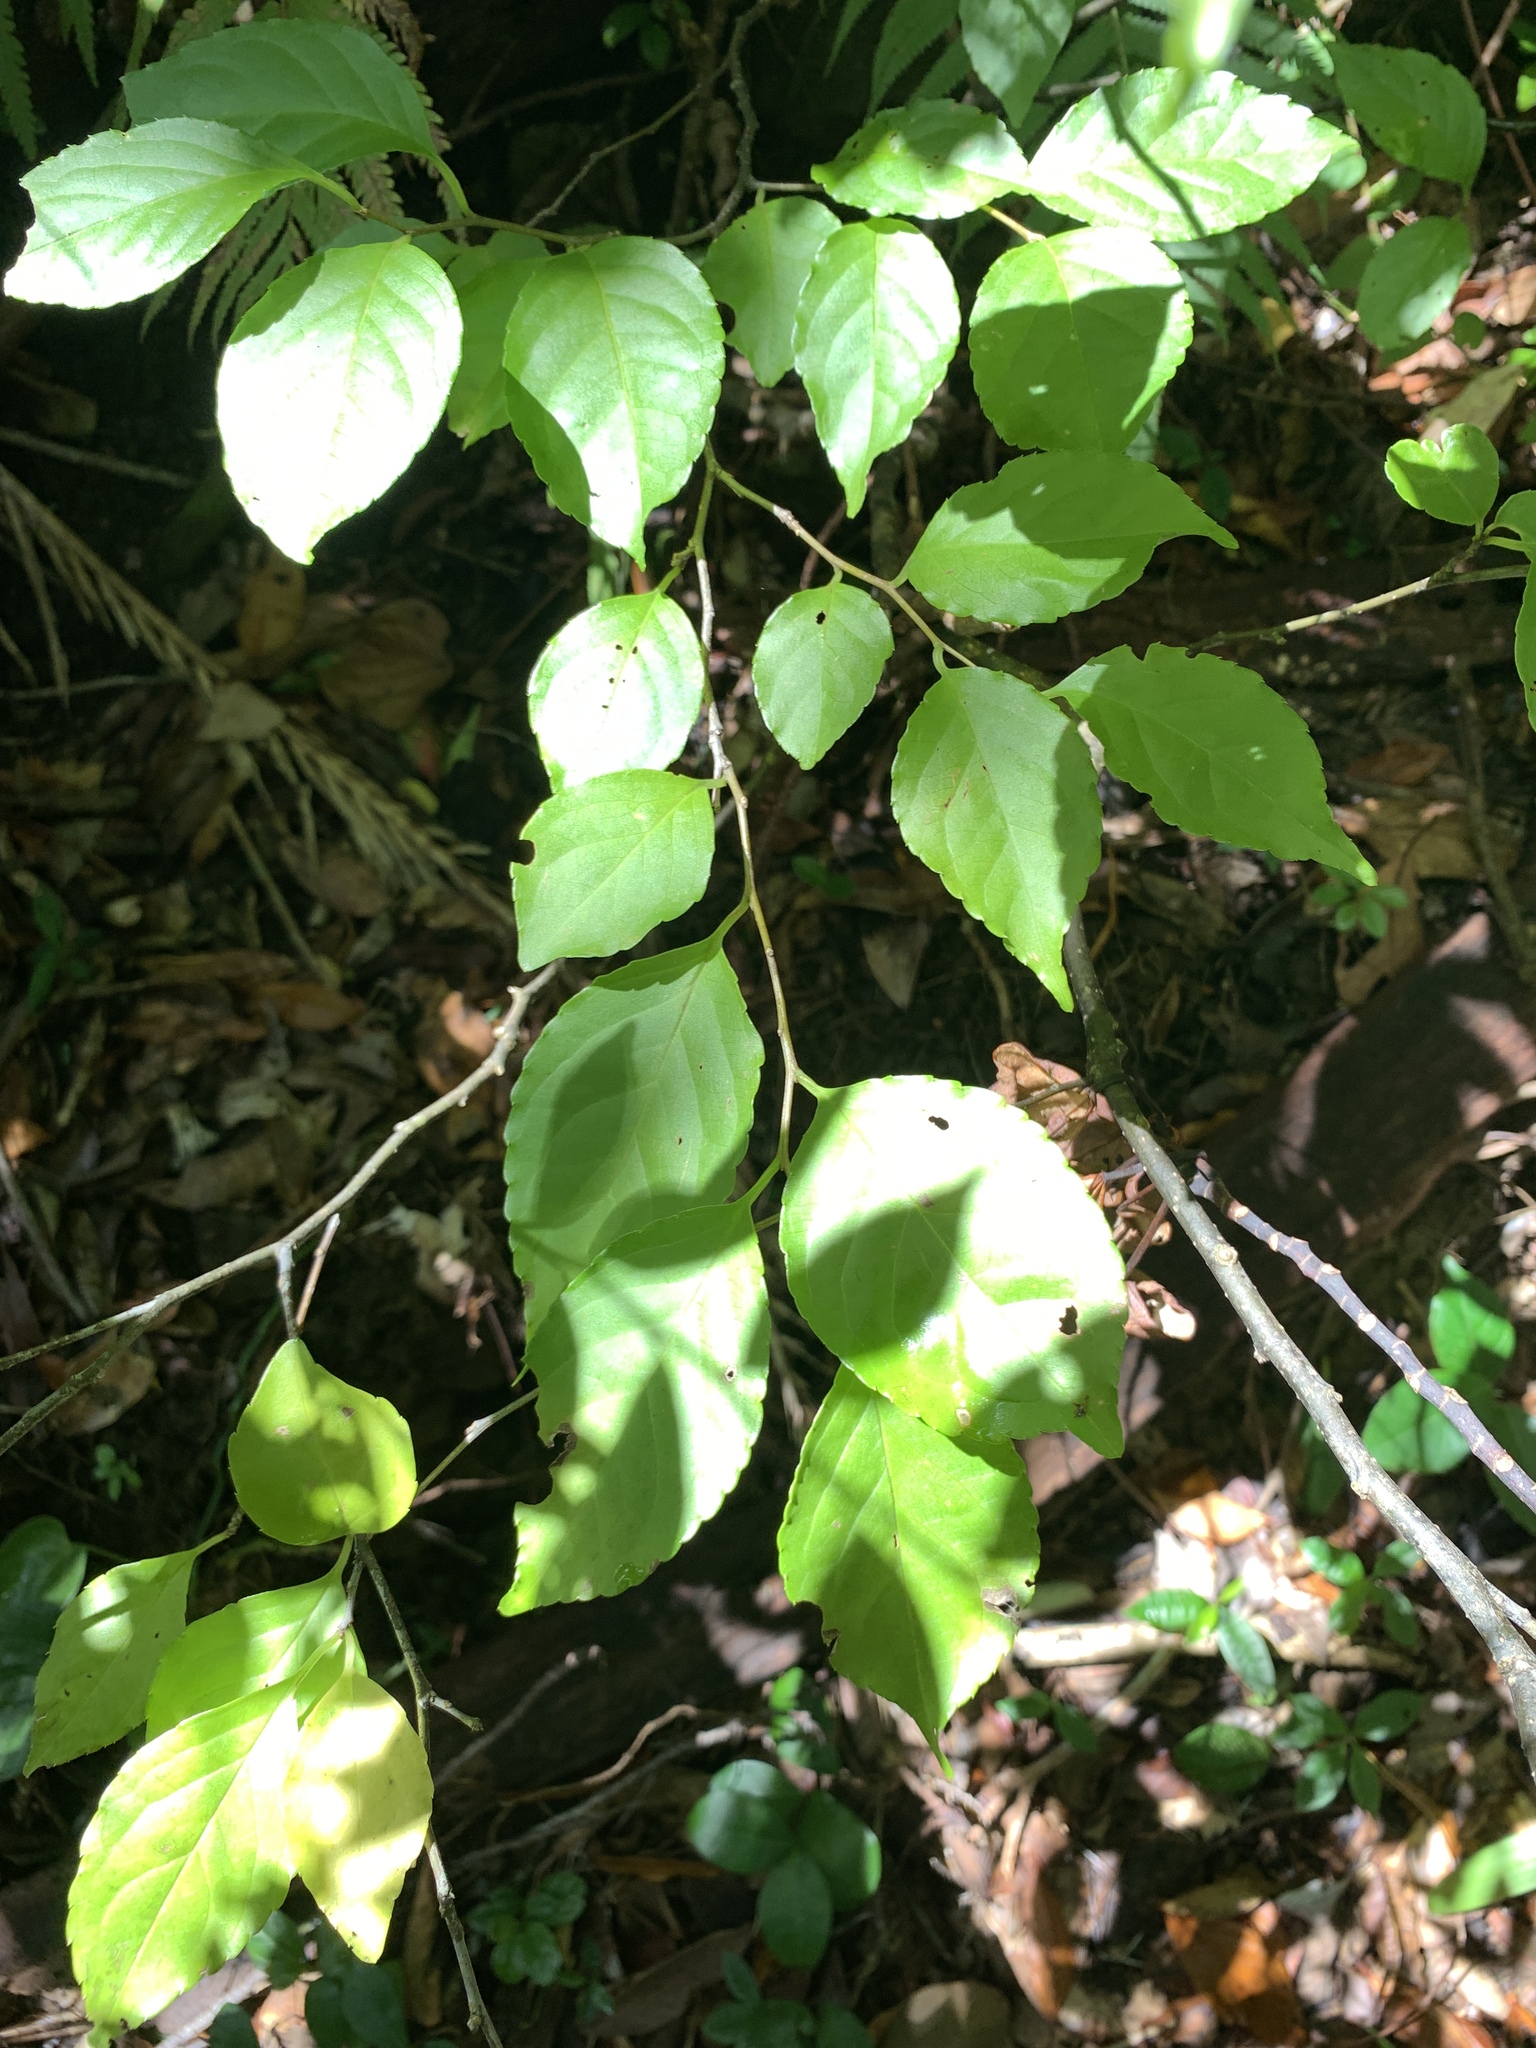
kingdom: Plantae
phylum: Tracheophyta
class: Magnoliopsida
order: Ericales
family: Styracaceae
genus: Styrax
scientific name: Styrax japonicus
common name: Japanese snowbell
